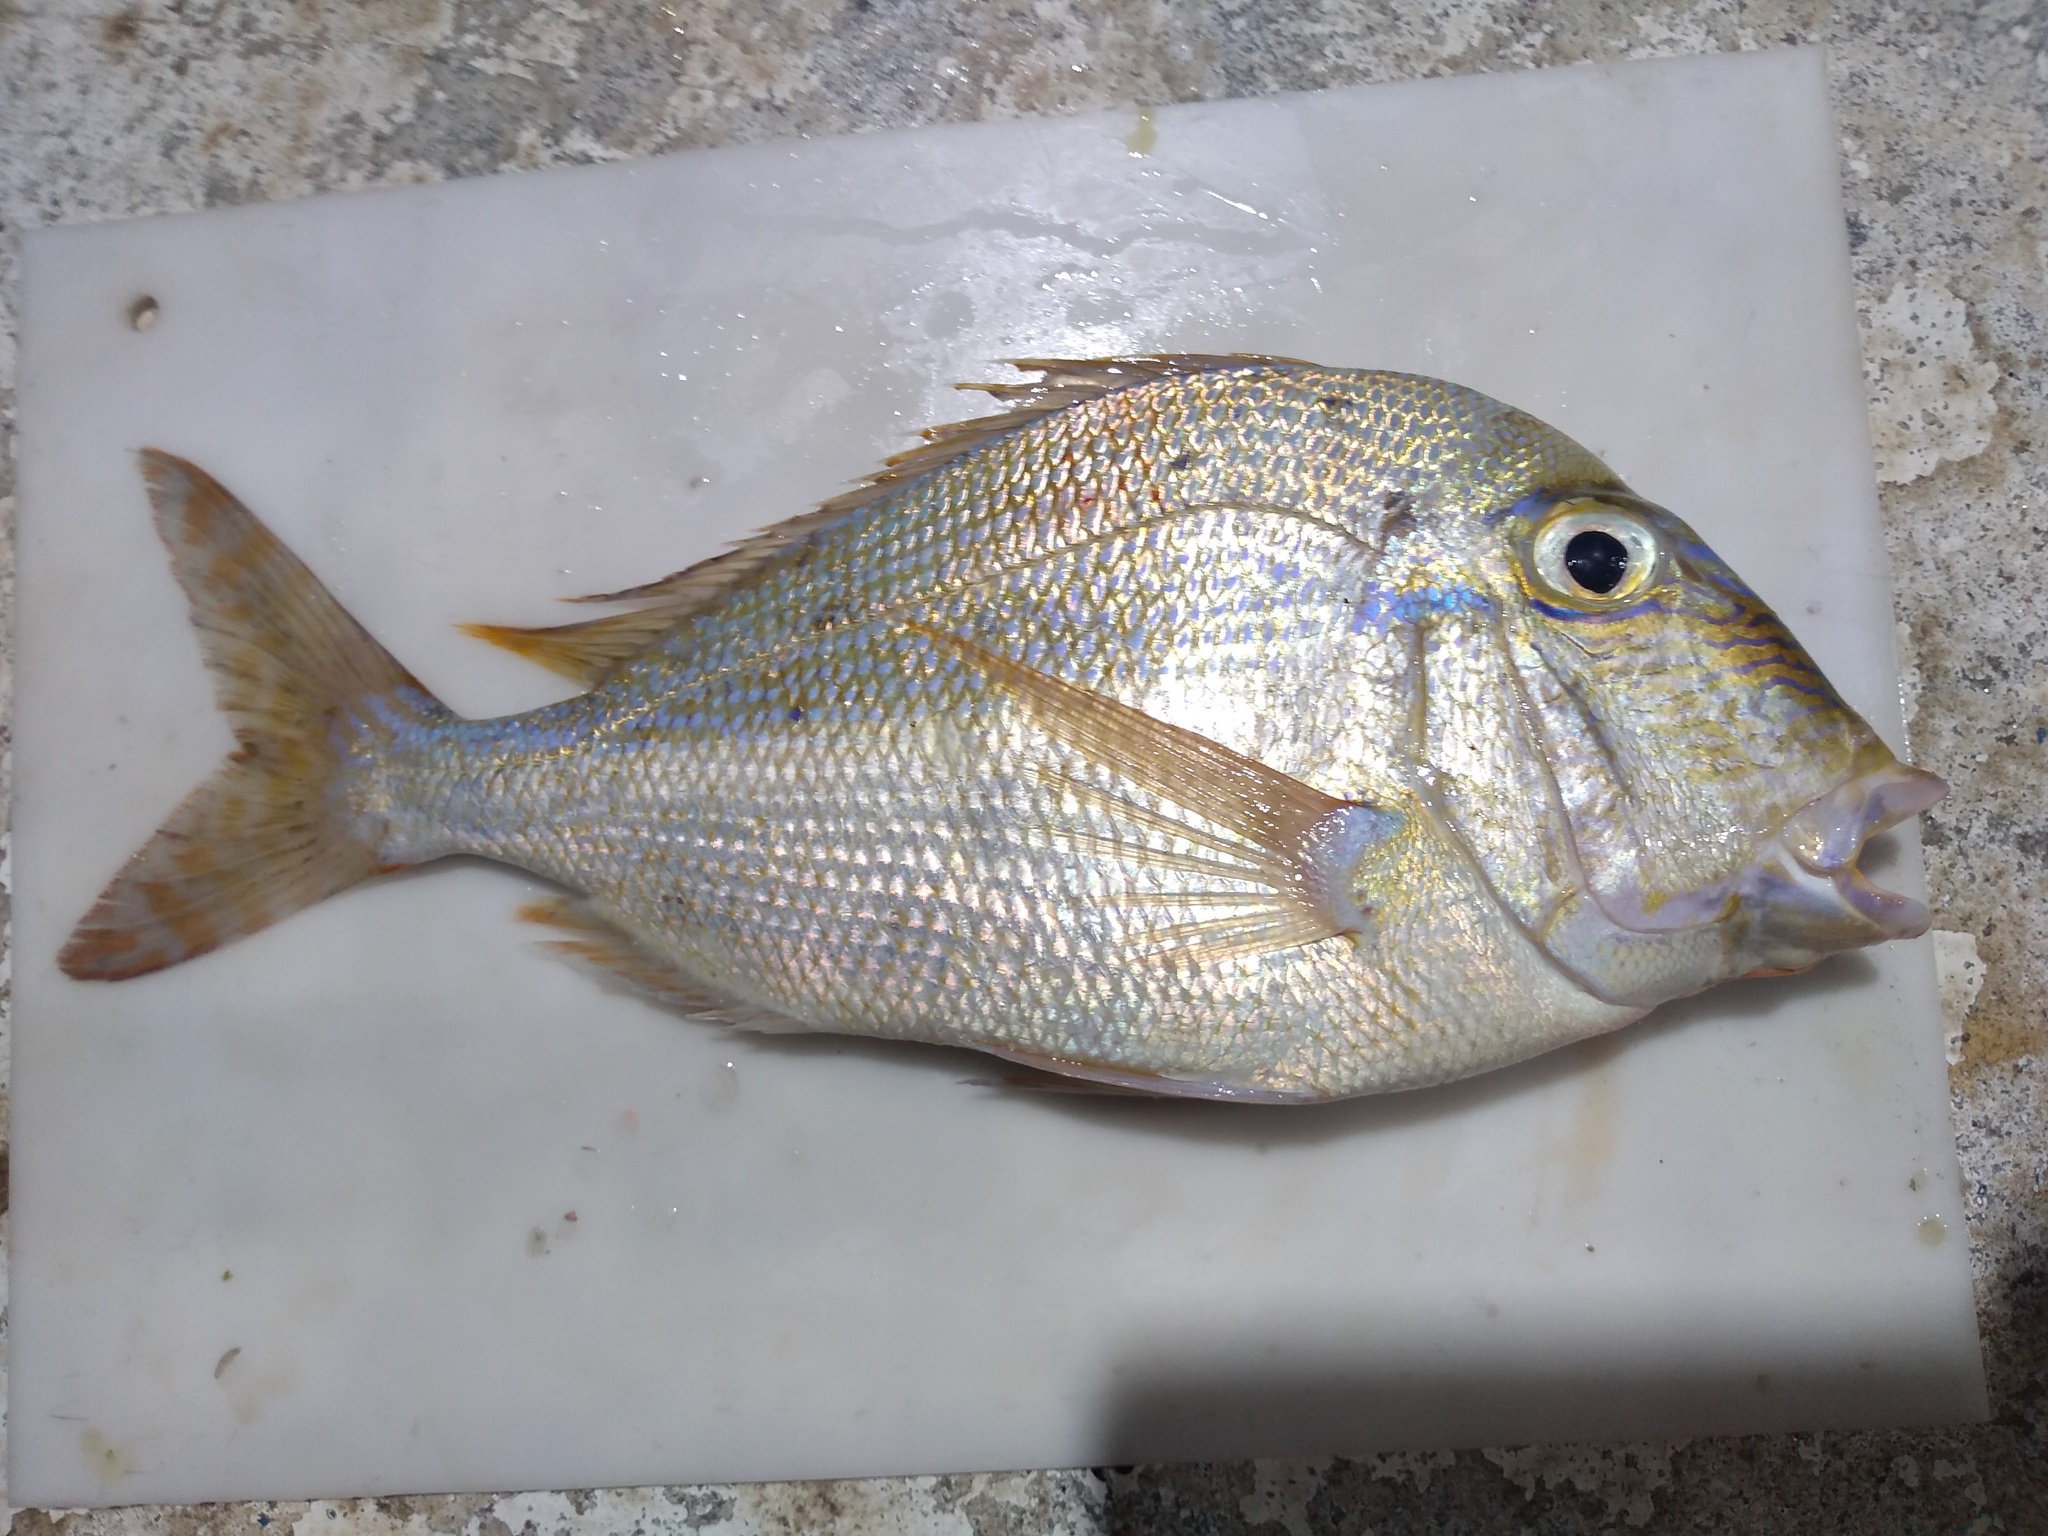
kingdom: Animalia
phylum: Chordata
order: Perciformes
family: Sparidae
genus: Calamus
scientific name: Calamus proridens
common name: Littlehead porgy
